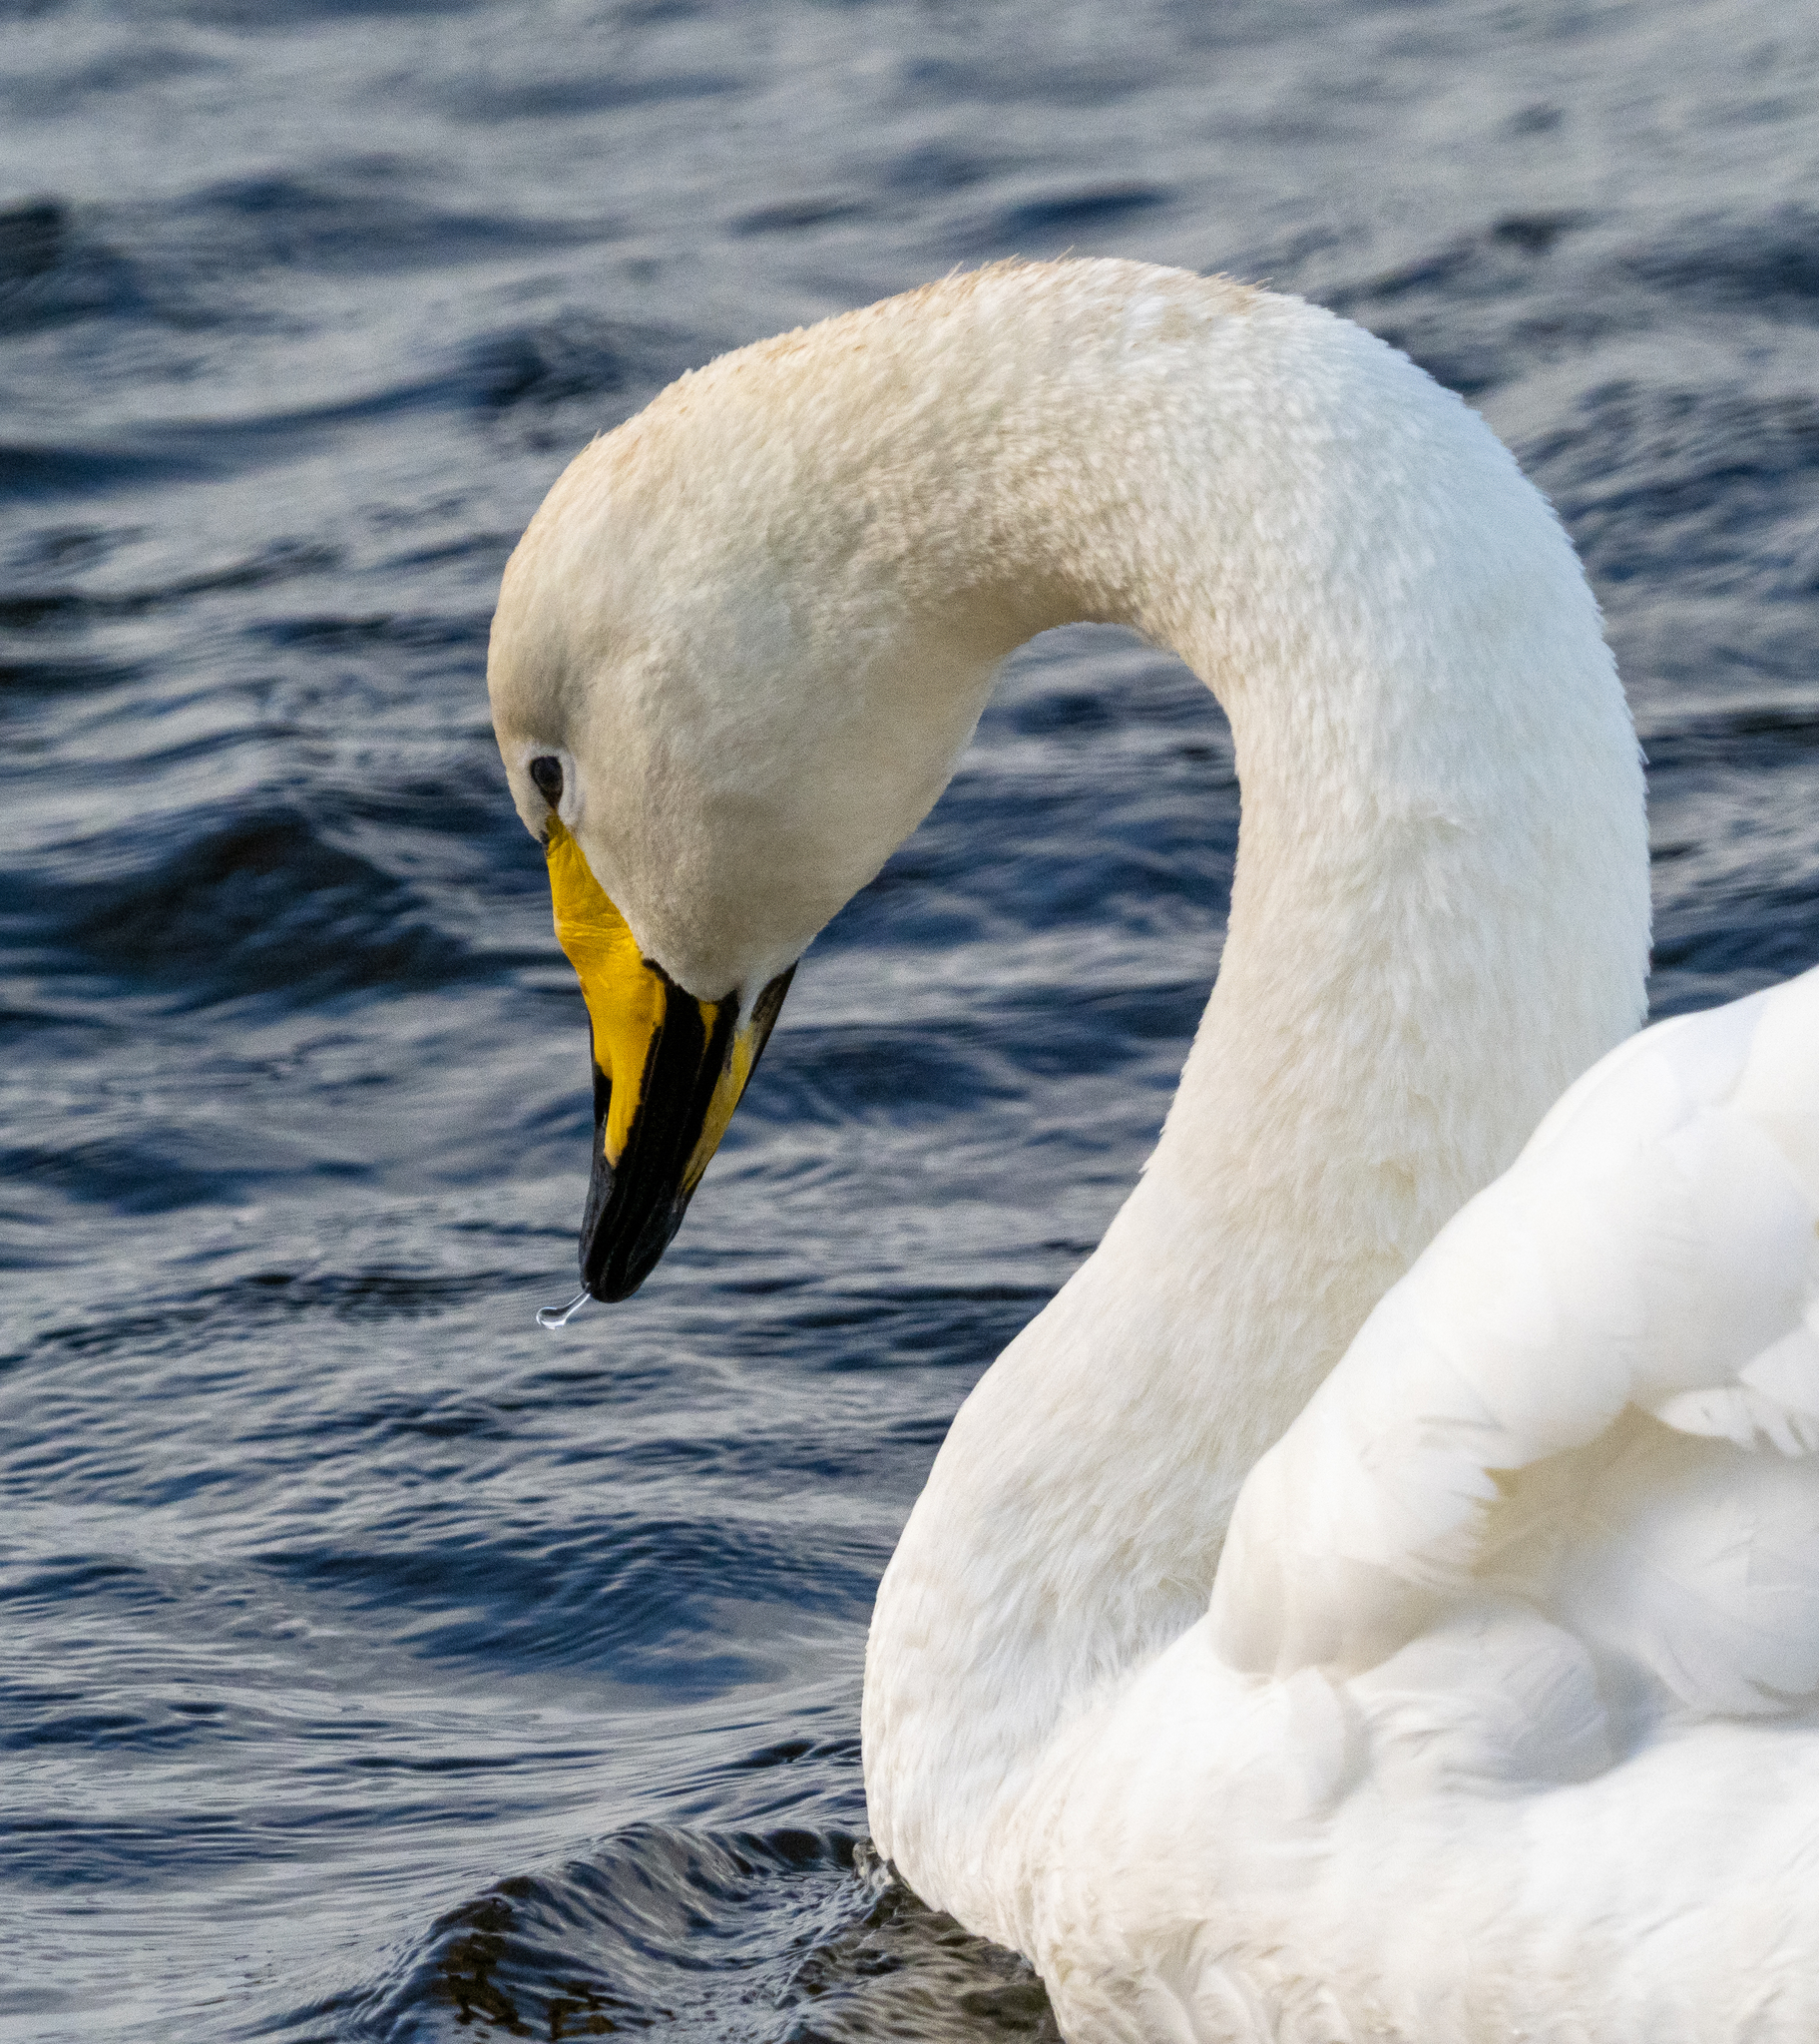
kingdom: Animalia
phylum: Chordata
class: Aves
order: Anseriformes
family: Anatidae
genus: Cygnus
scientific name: Cygnus cygnus
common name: Whooper swan
